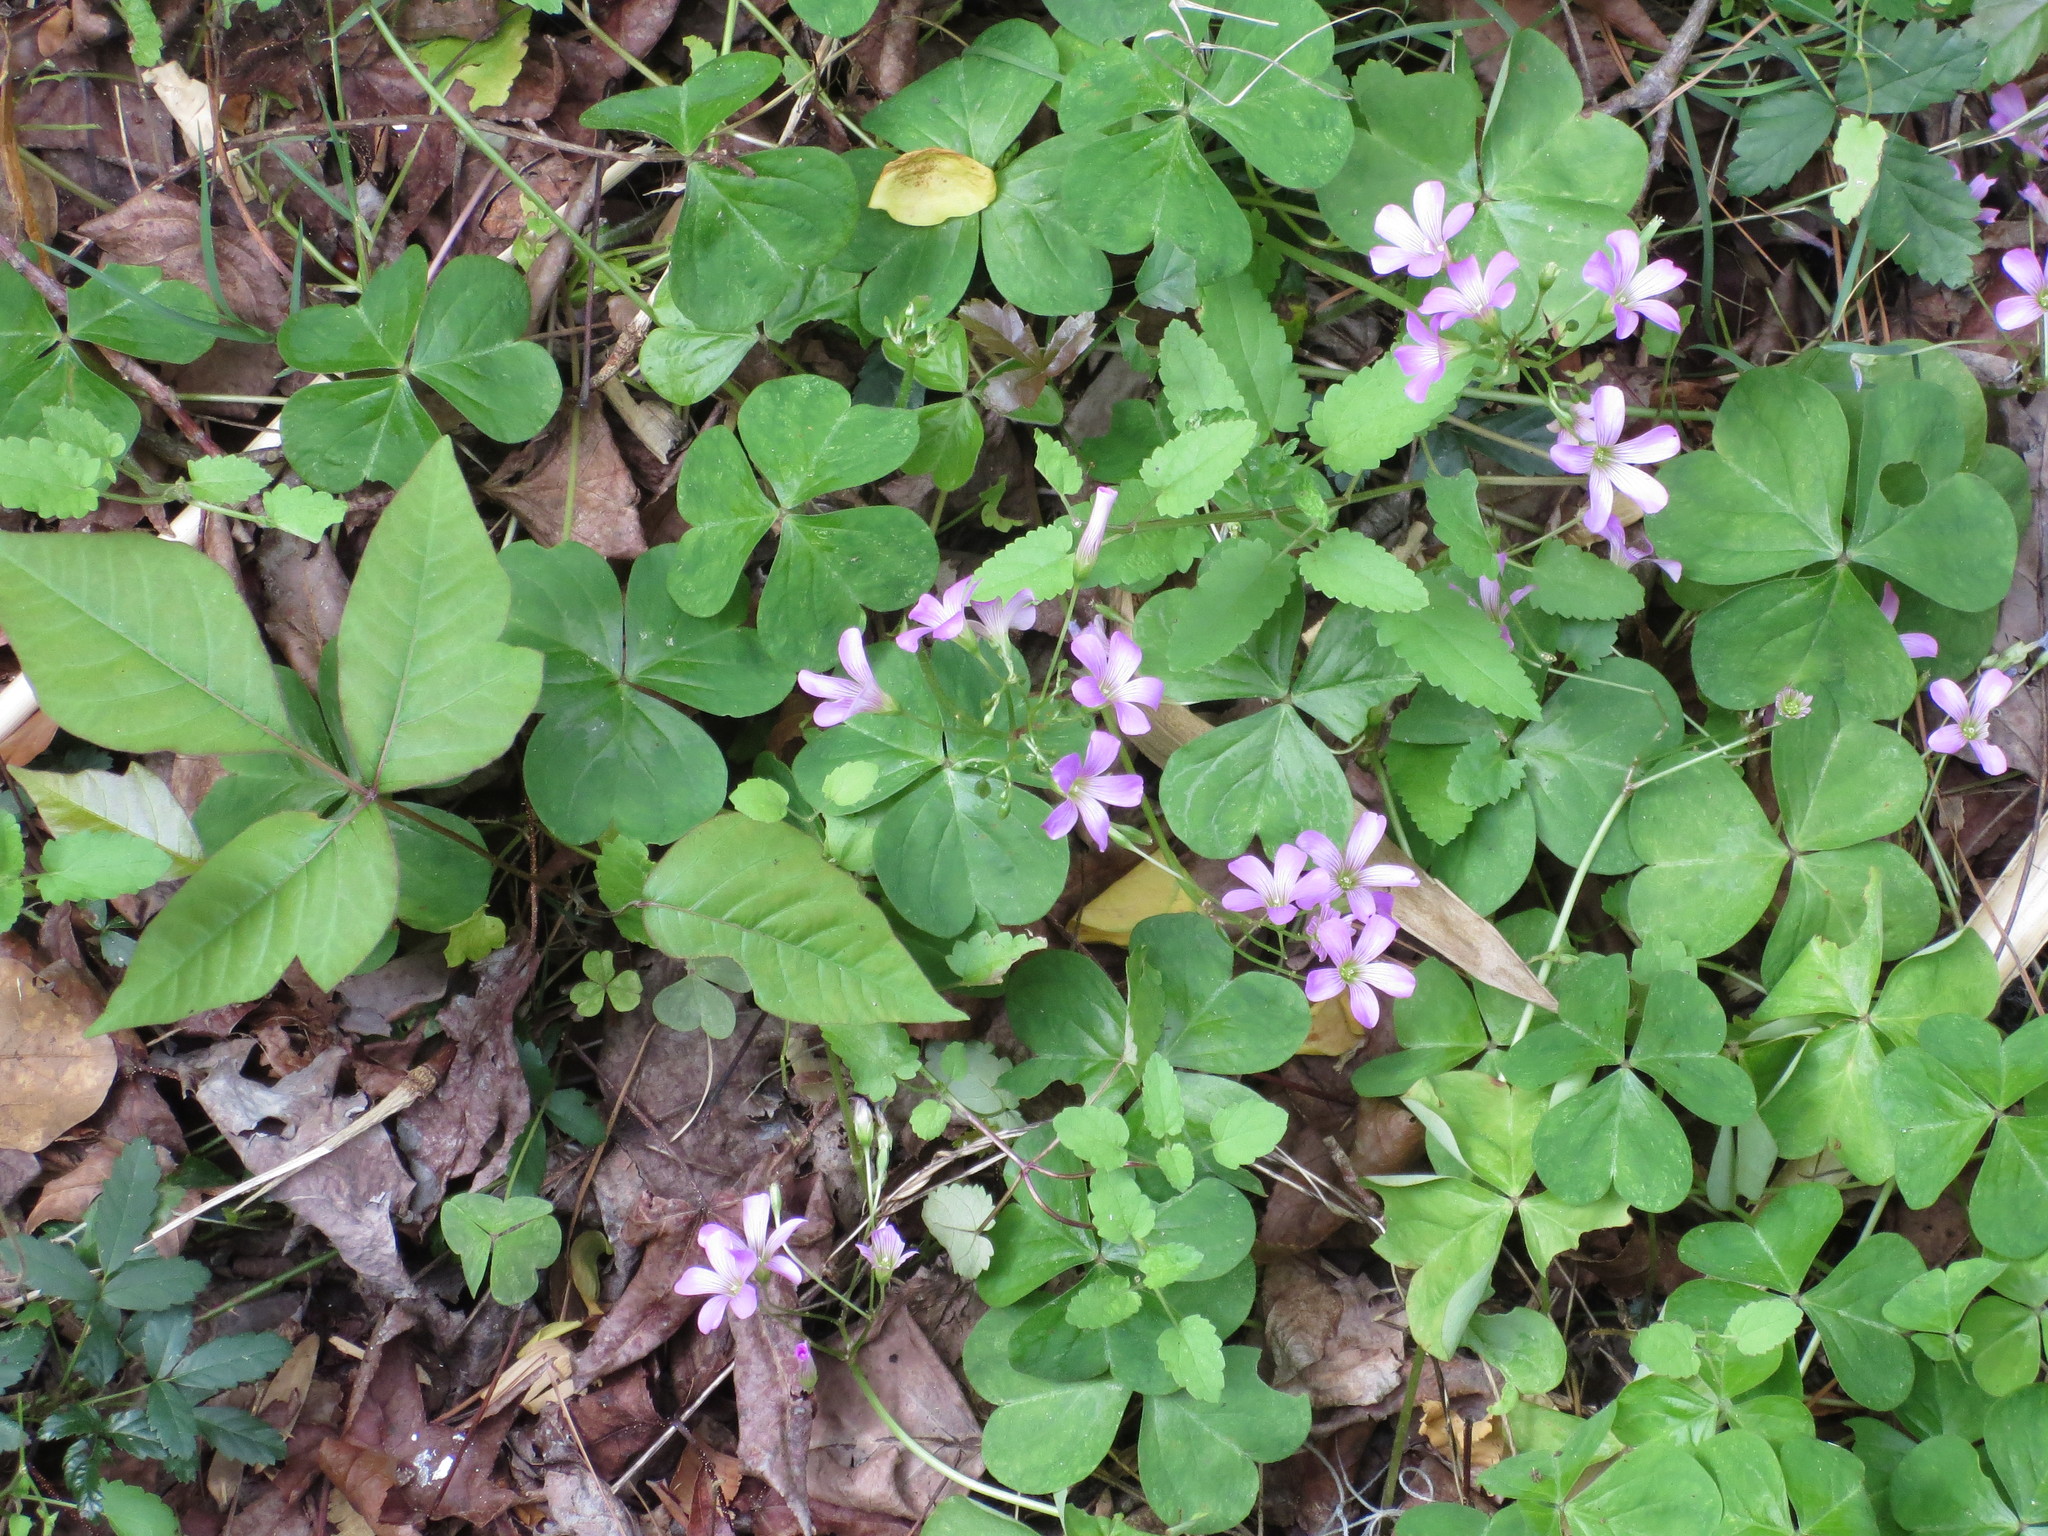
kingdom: Plantae
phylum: Tracheophyta
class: Magnoliopsida
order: Oxalidales
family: Oxalidaceae
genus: Oxalis
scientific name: Oxalis debilis
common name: Large-flowered pink-sorrel
